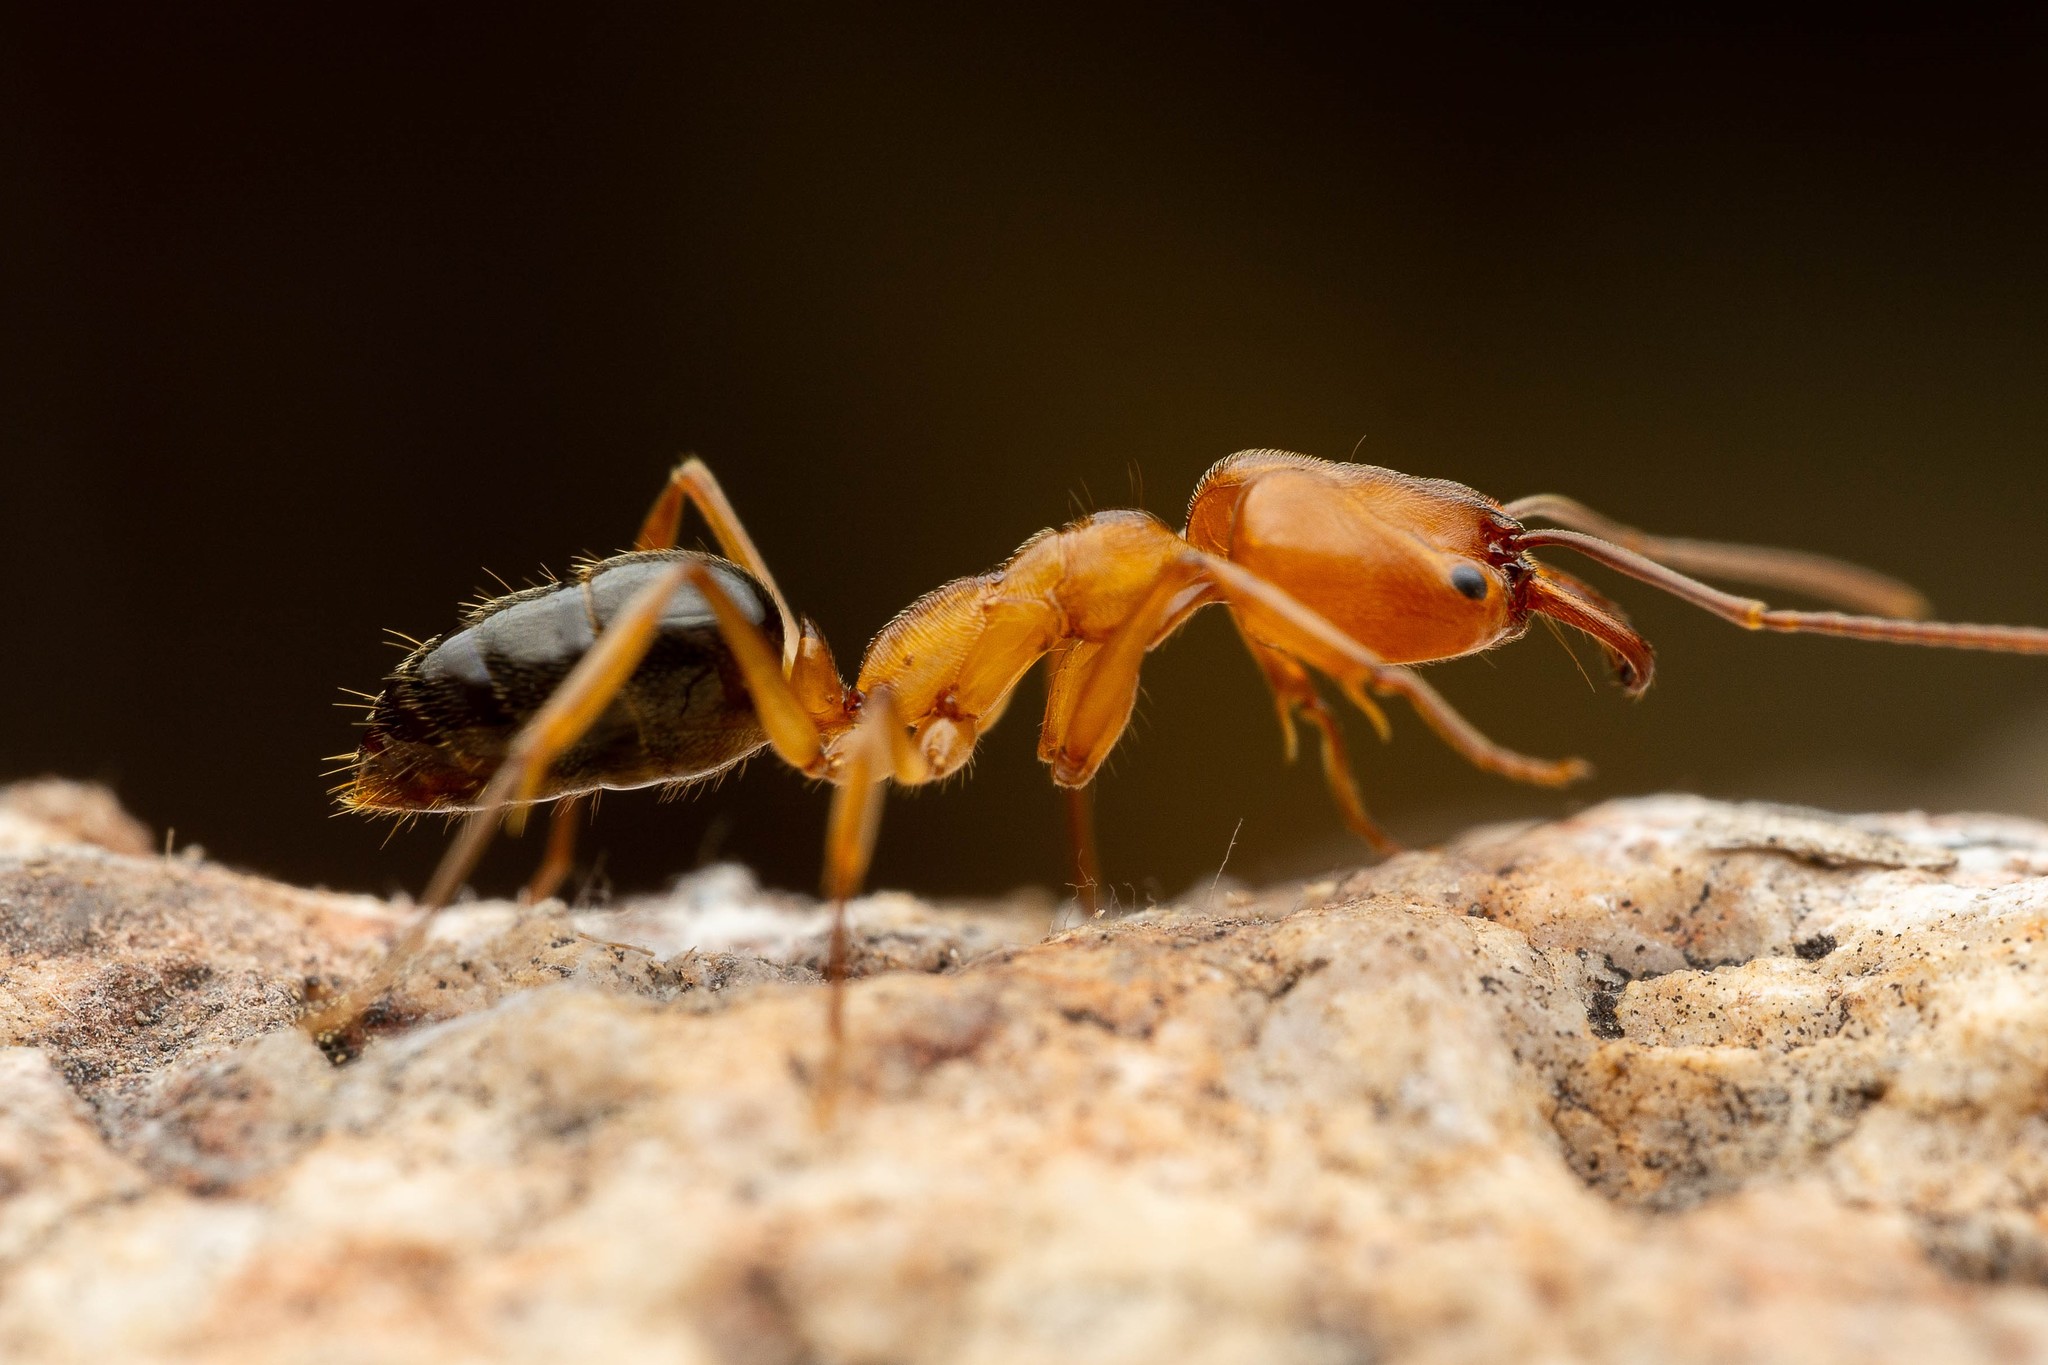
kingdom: Animalia
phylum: Arthropoda
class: Insecta
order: Hymenoptera
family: Formicidae
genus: Odontomachus
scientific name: Odontomachus clarus
